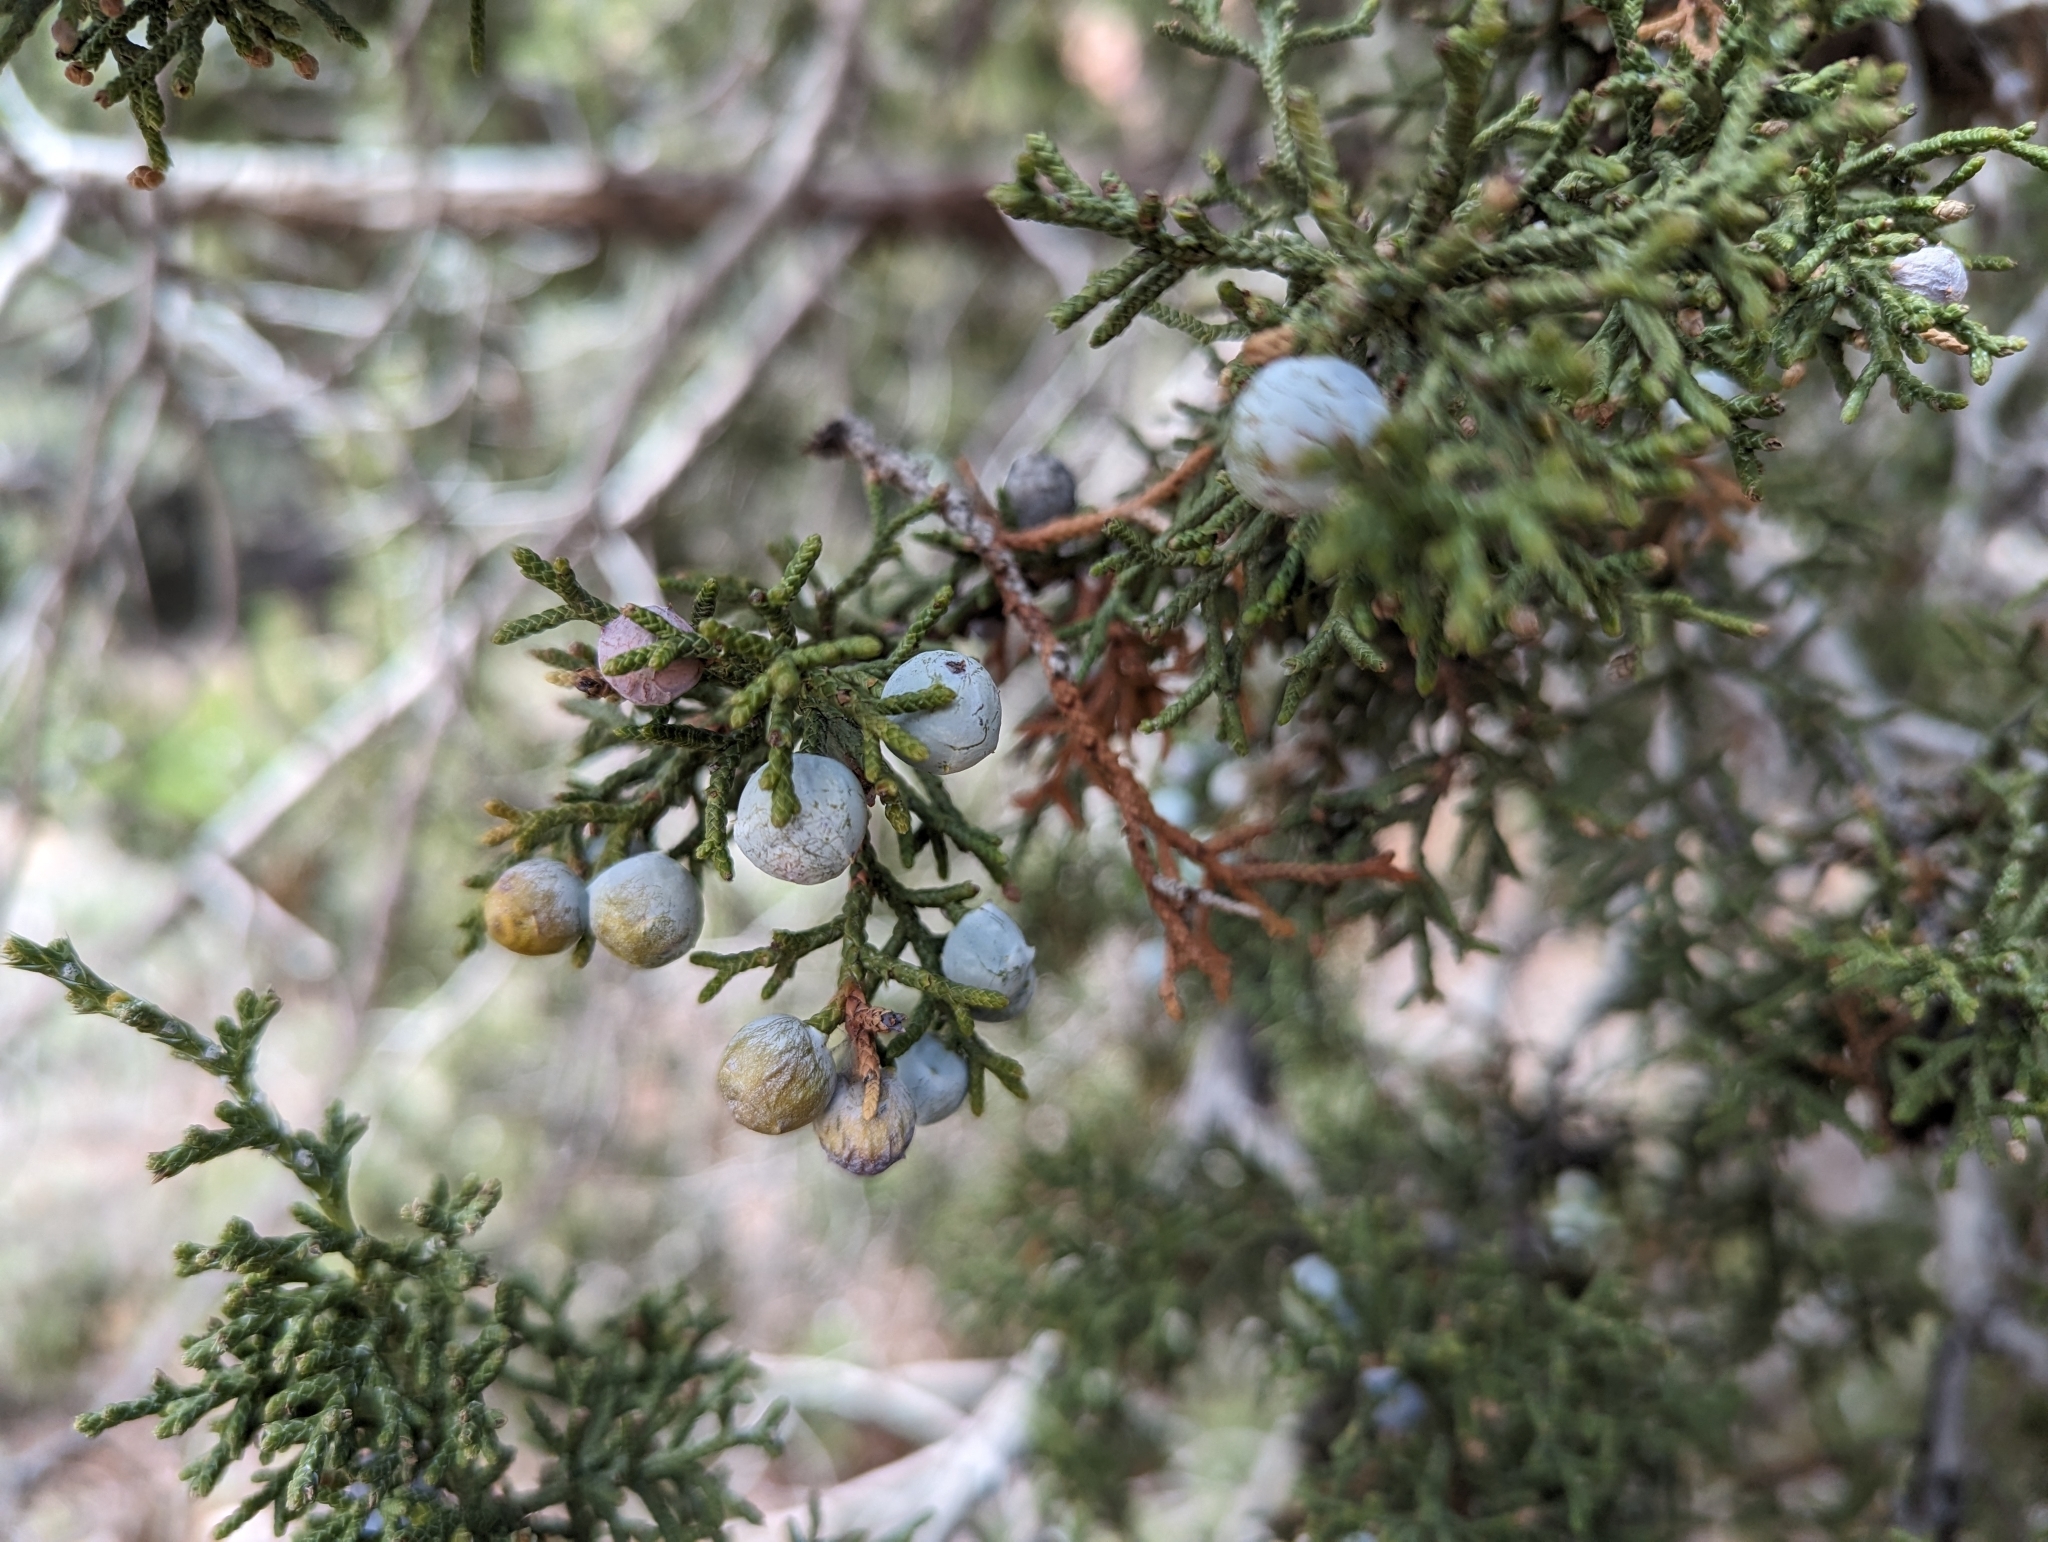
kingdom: Plantae
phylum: Tracheophyta
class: Pinopsida
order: Pinales
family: Cupressaceae
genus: Juniperus
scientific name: Juniperus osteosperma
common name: Utah juniper
